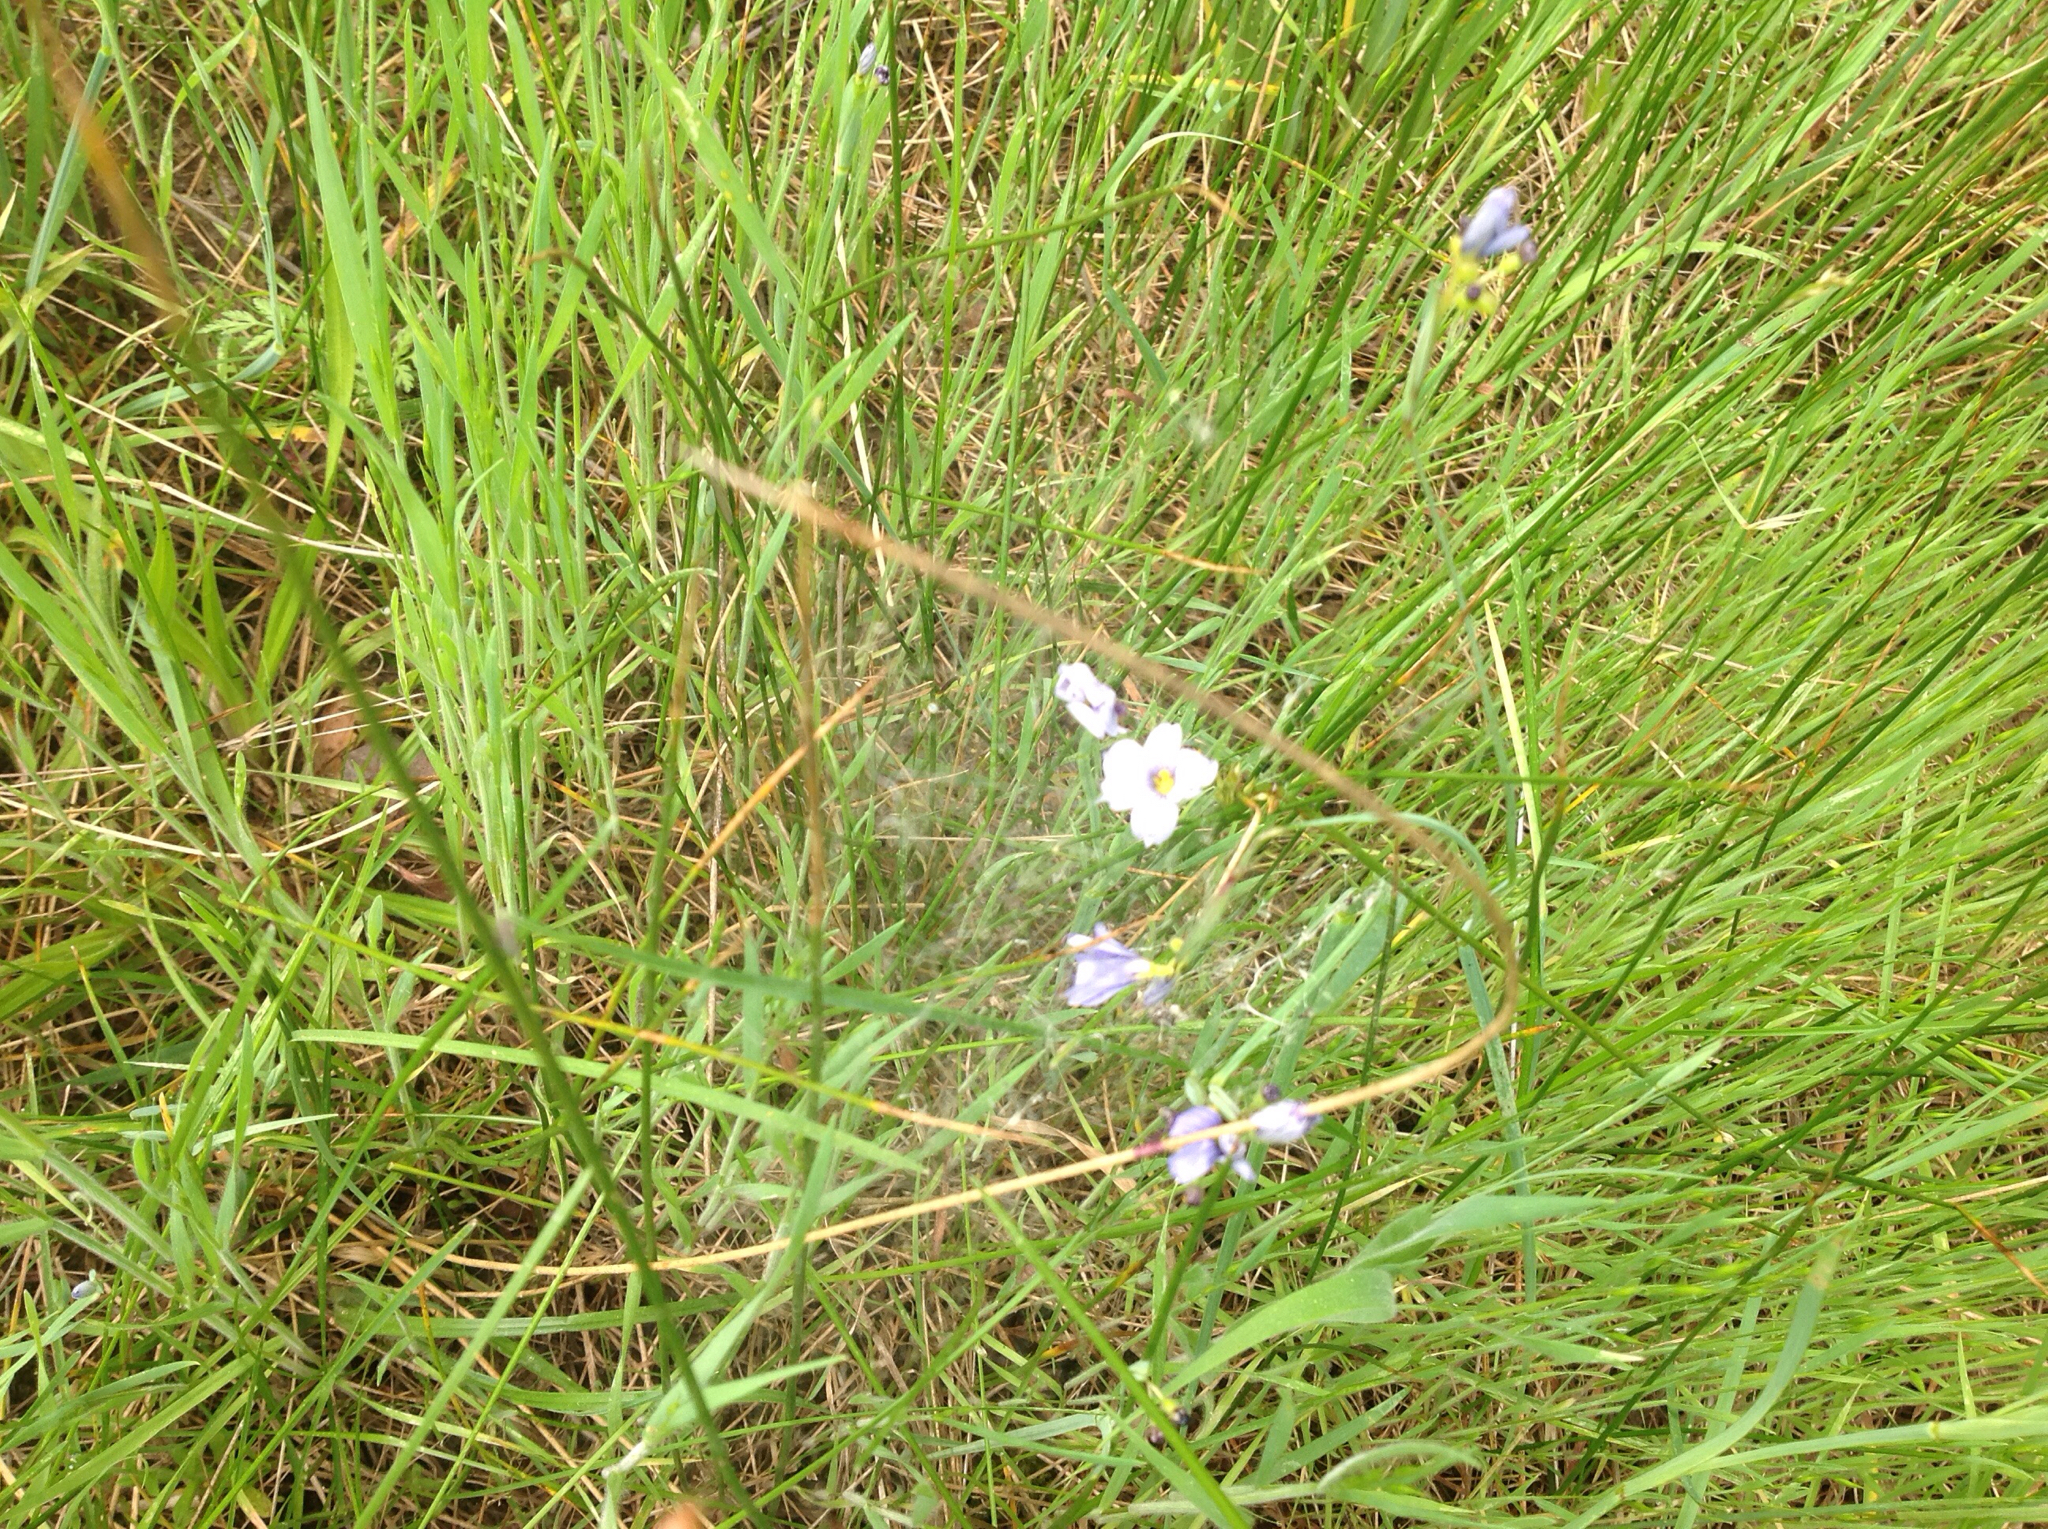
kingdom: Plantae
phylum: Tracheophyta
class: Liliopsida
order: Asparagales
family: Iridaceae
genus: Sisyrinchium
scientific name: Sisyrinchium bellum
